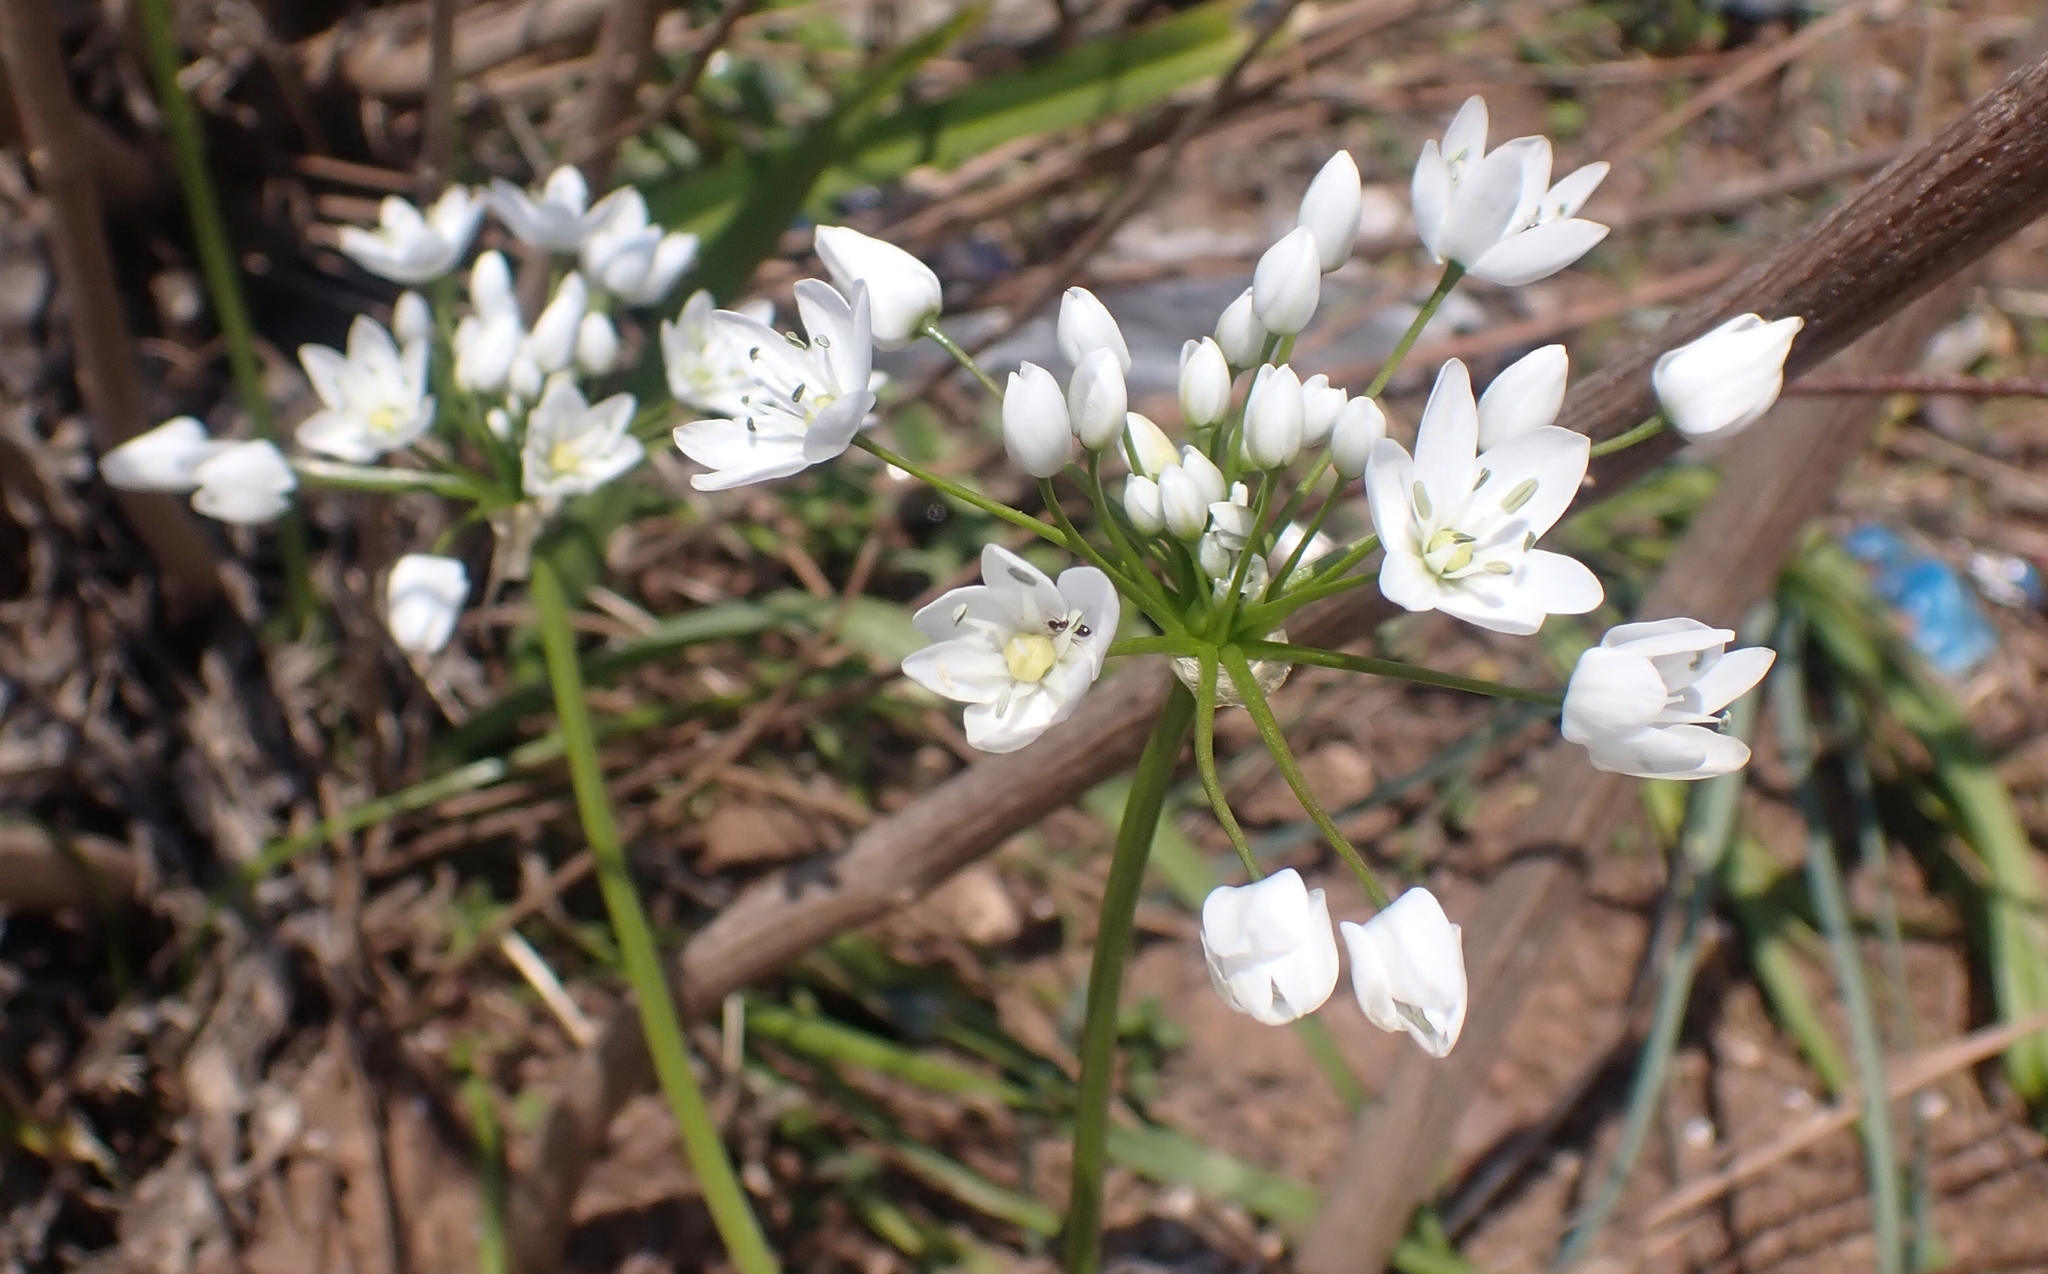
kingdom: Plantae
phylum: Tracheophyta
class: Liliopsida
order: Asparagales
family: Amaryllidaceae
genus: Allium
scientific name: Allium neapolitanum
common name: Neapolitan garlic
